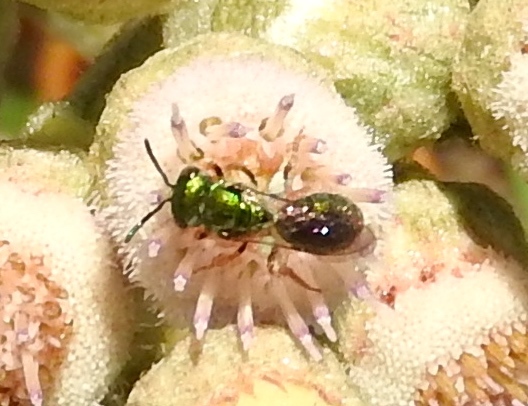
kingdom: Animalia
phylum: Arthropoda
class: Insecta
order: Hymenoptera
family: Halictidae
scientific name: Halictidae
